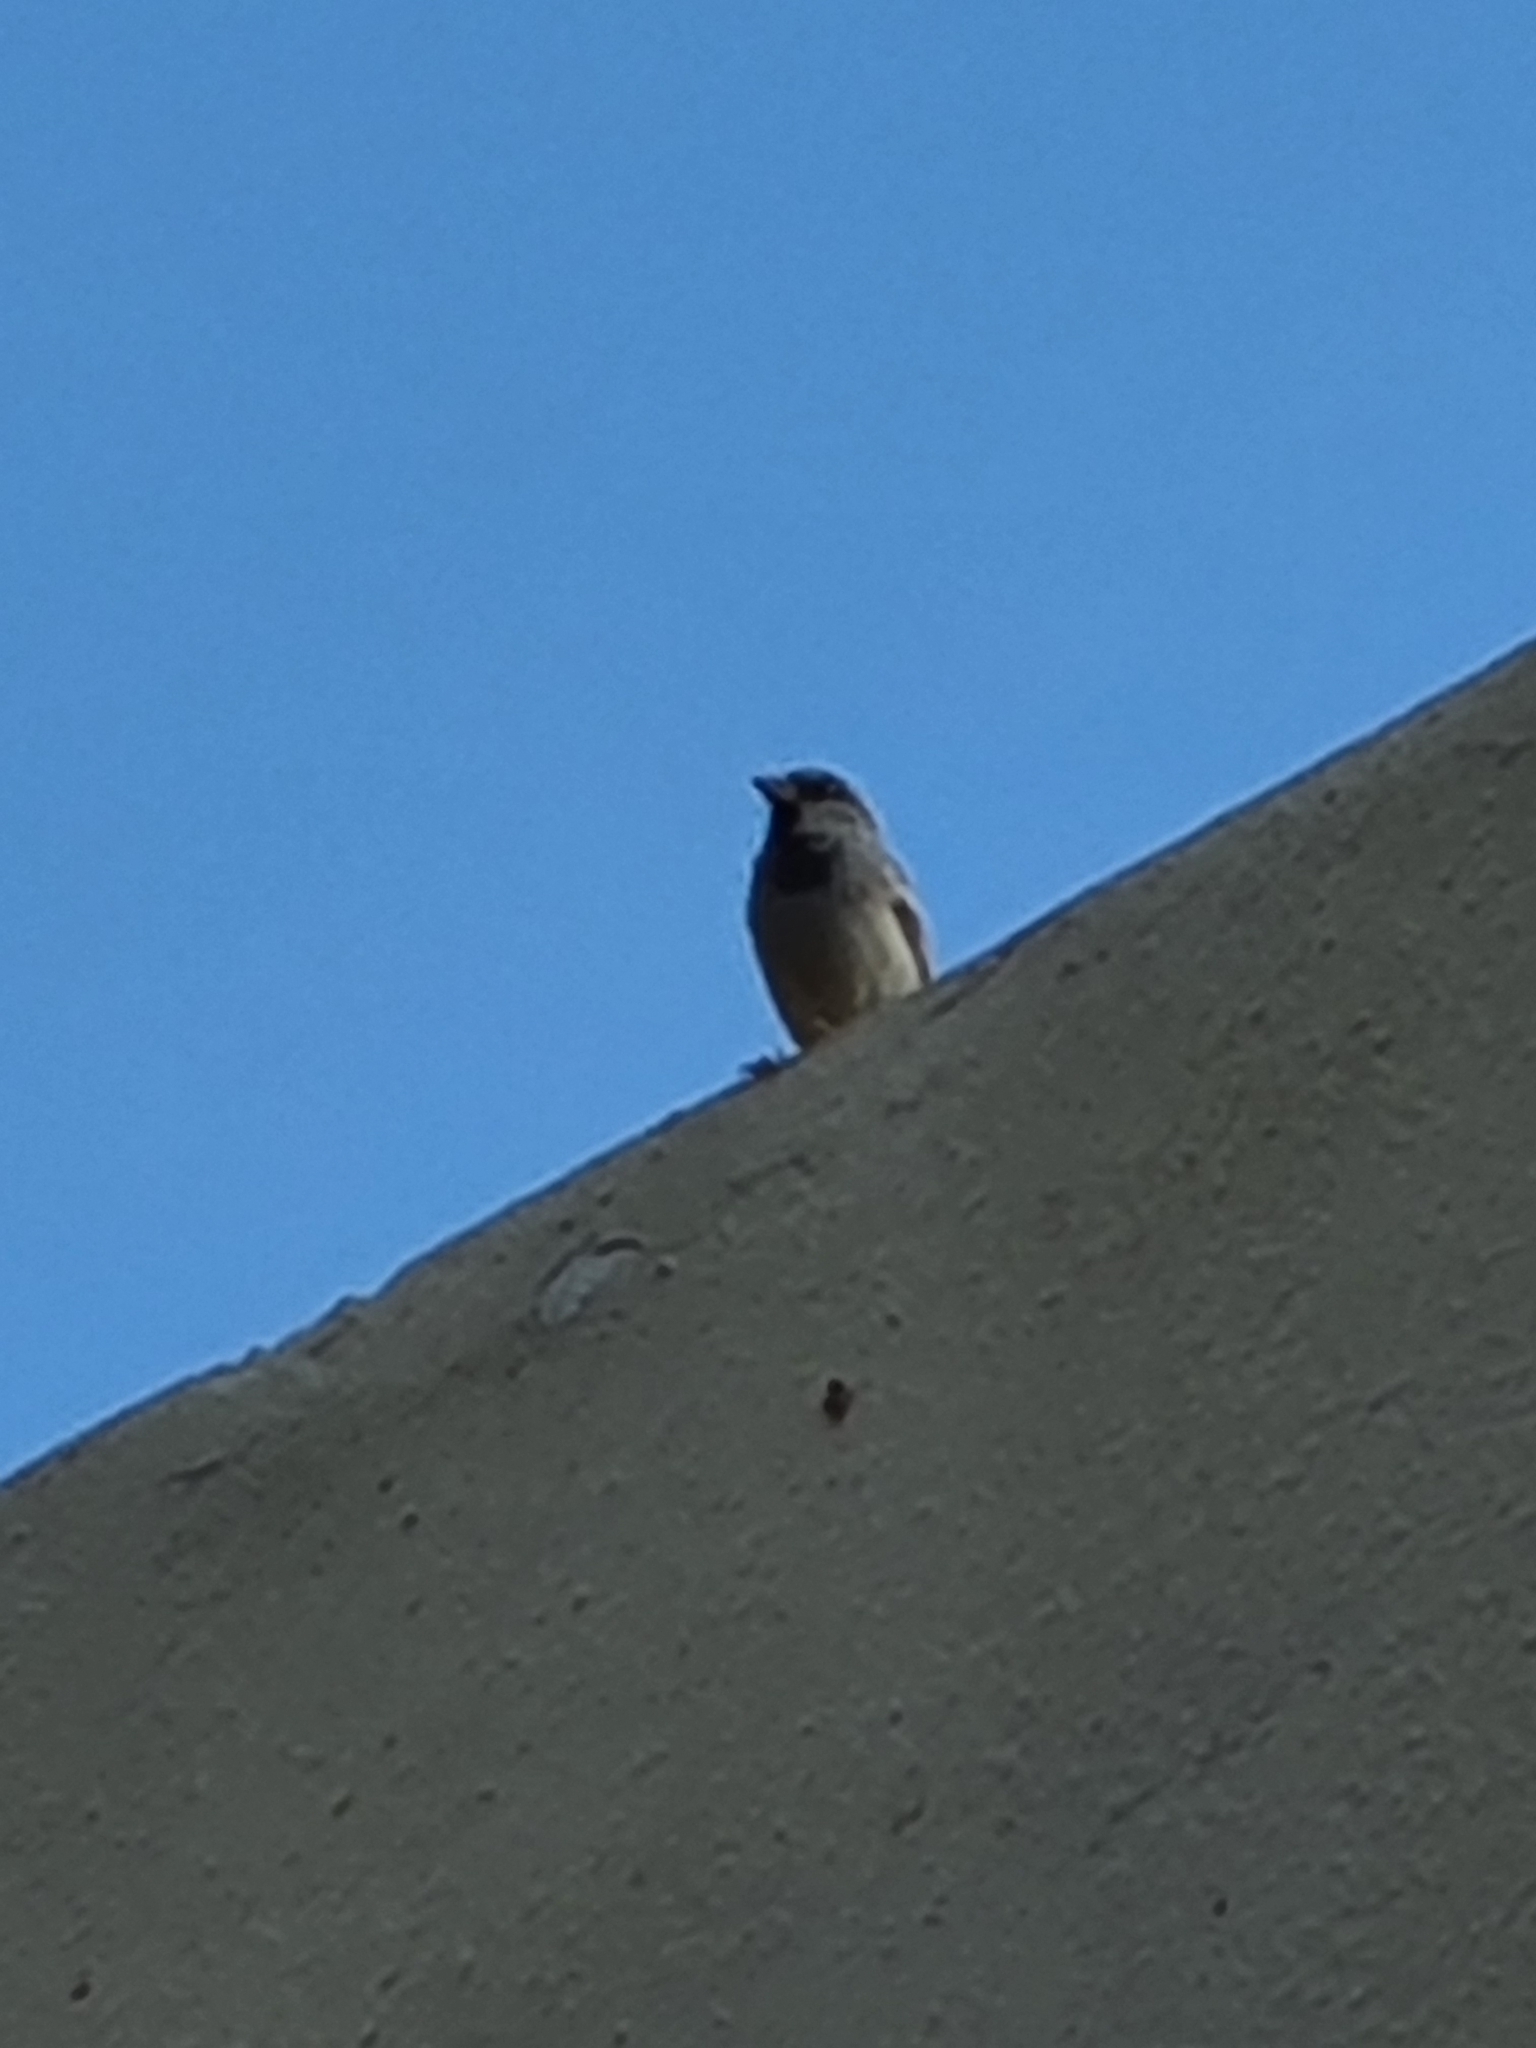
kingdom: Animalia
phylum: Chordata
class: Aves
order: Passeriformes
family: Passeridae
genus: Passer
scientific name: Passer domesticus
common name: House sparrow
